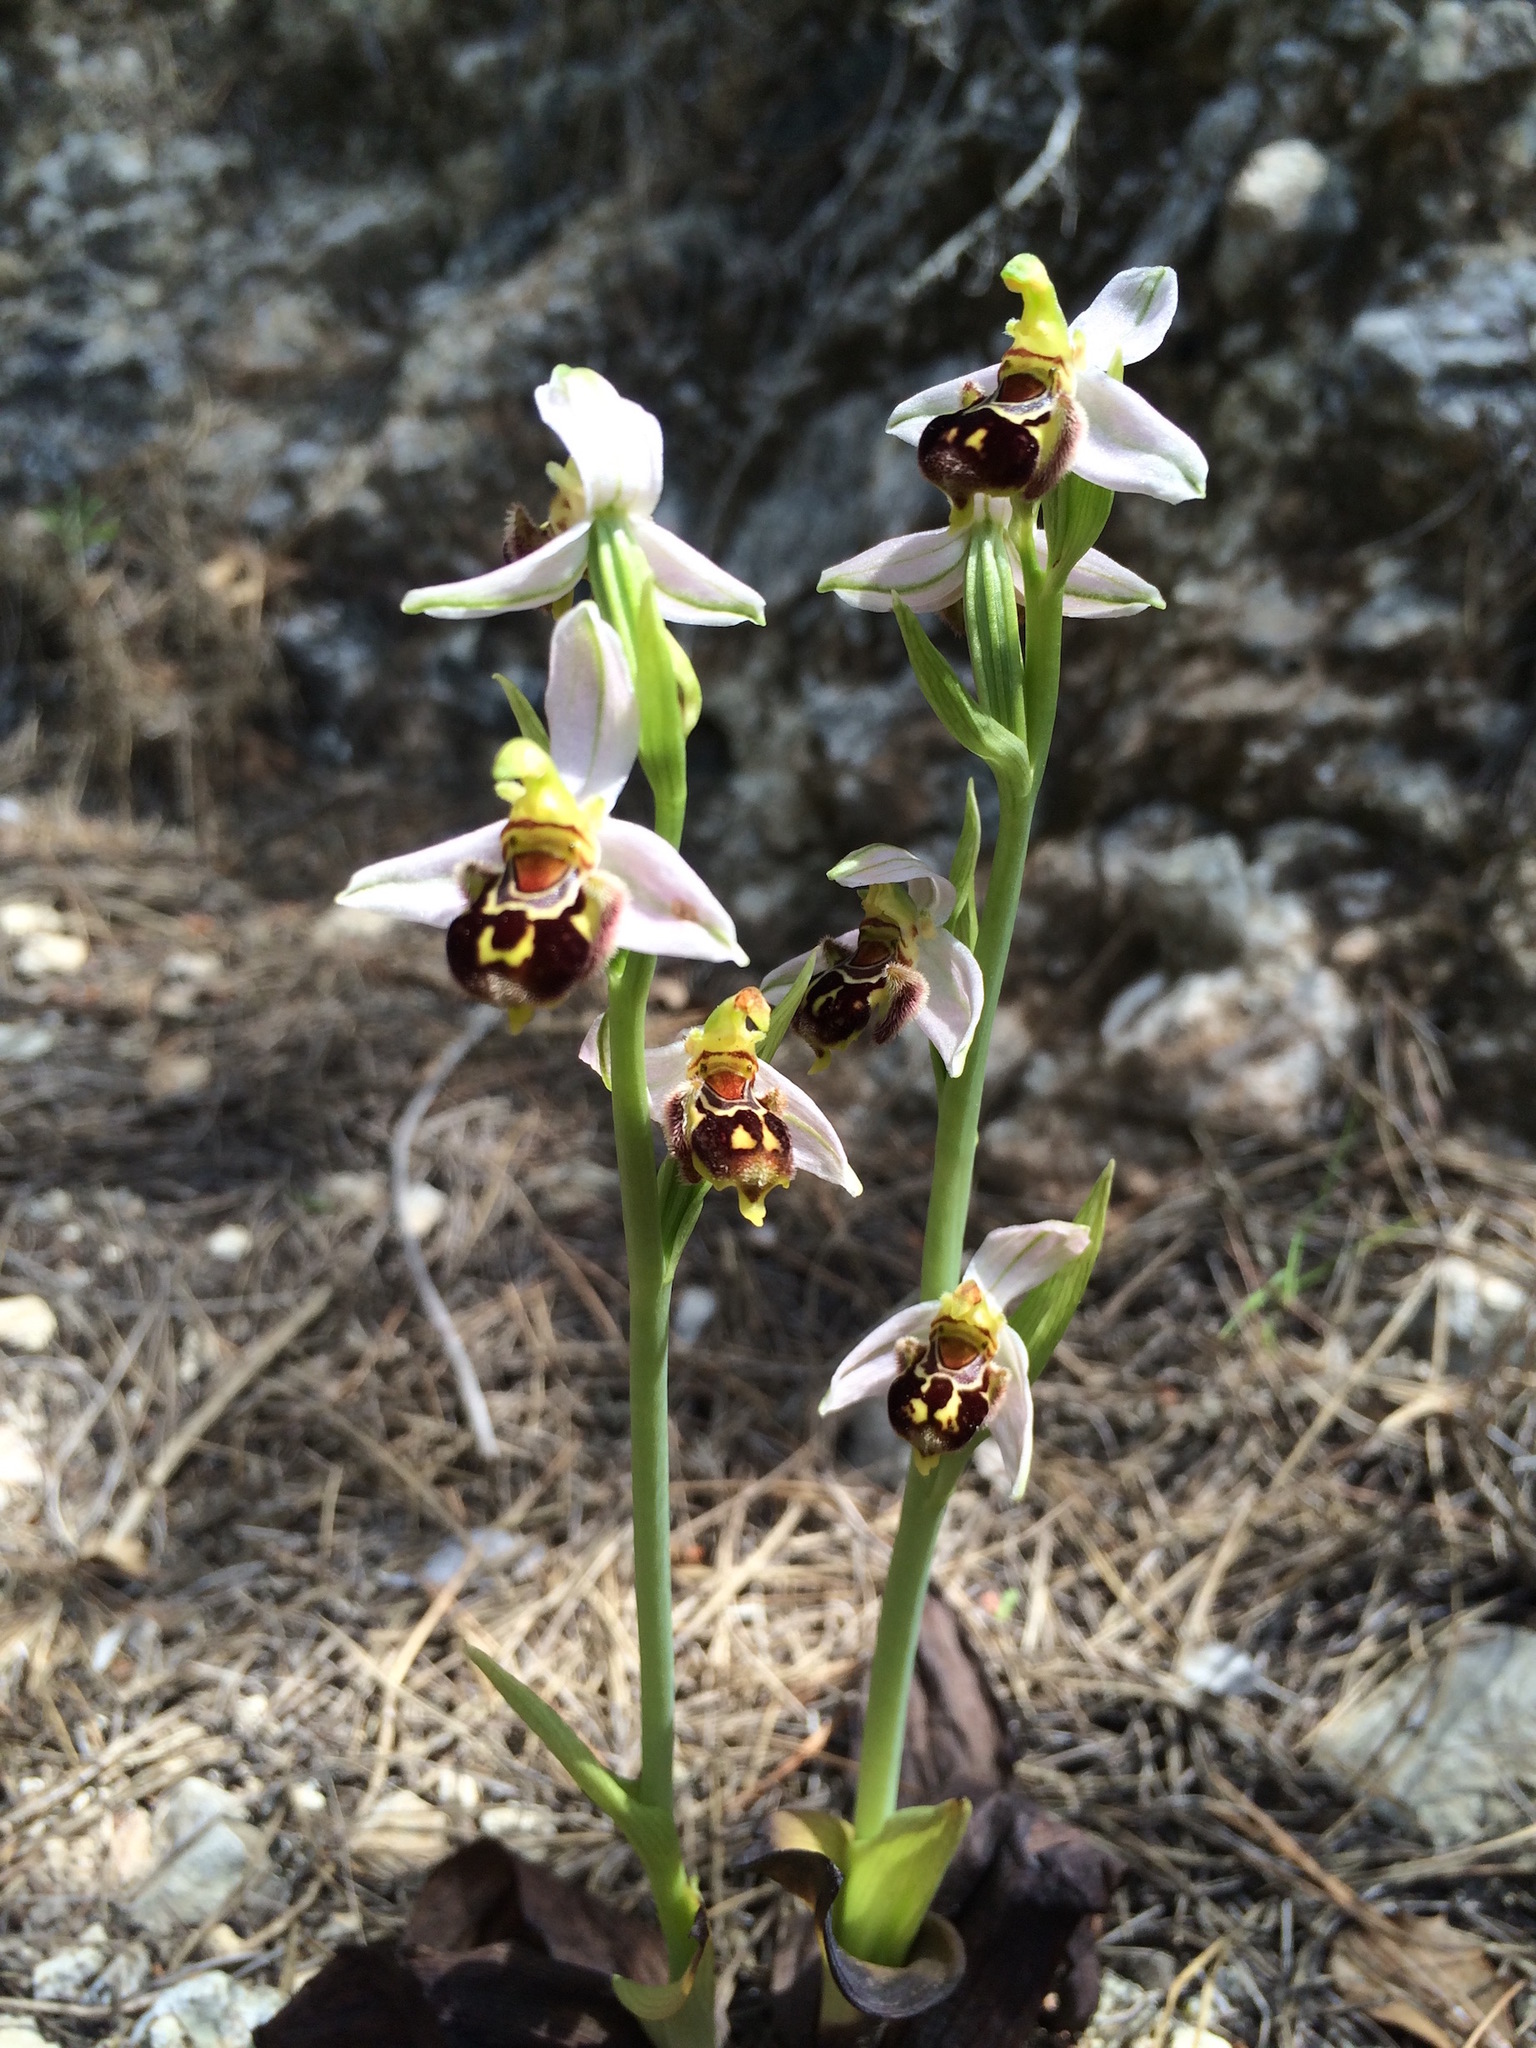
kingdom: Plantae
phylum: Tracheophyta
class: Liliopsida
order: Asparagales
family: Orchidaceae
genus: Ophrys
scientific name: Ophrys apifera
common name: Bee orchid
